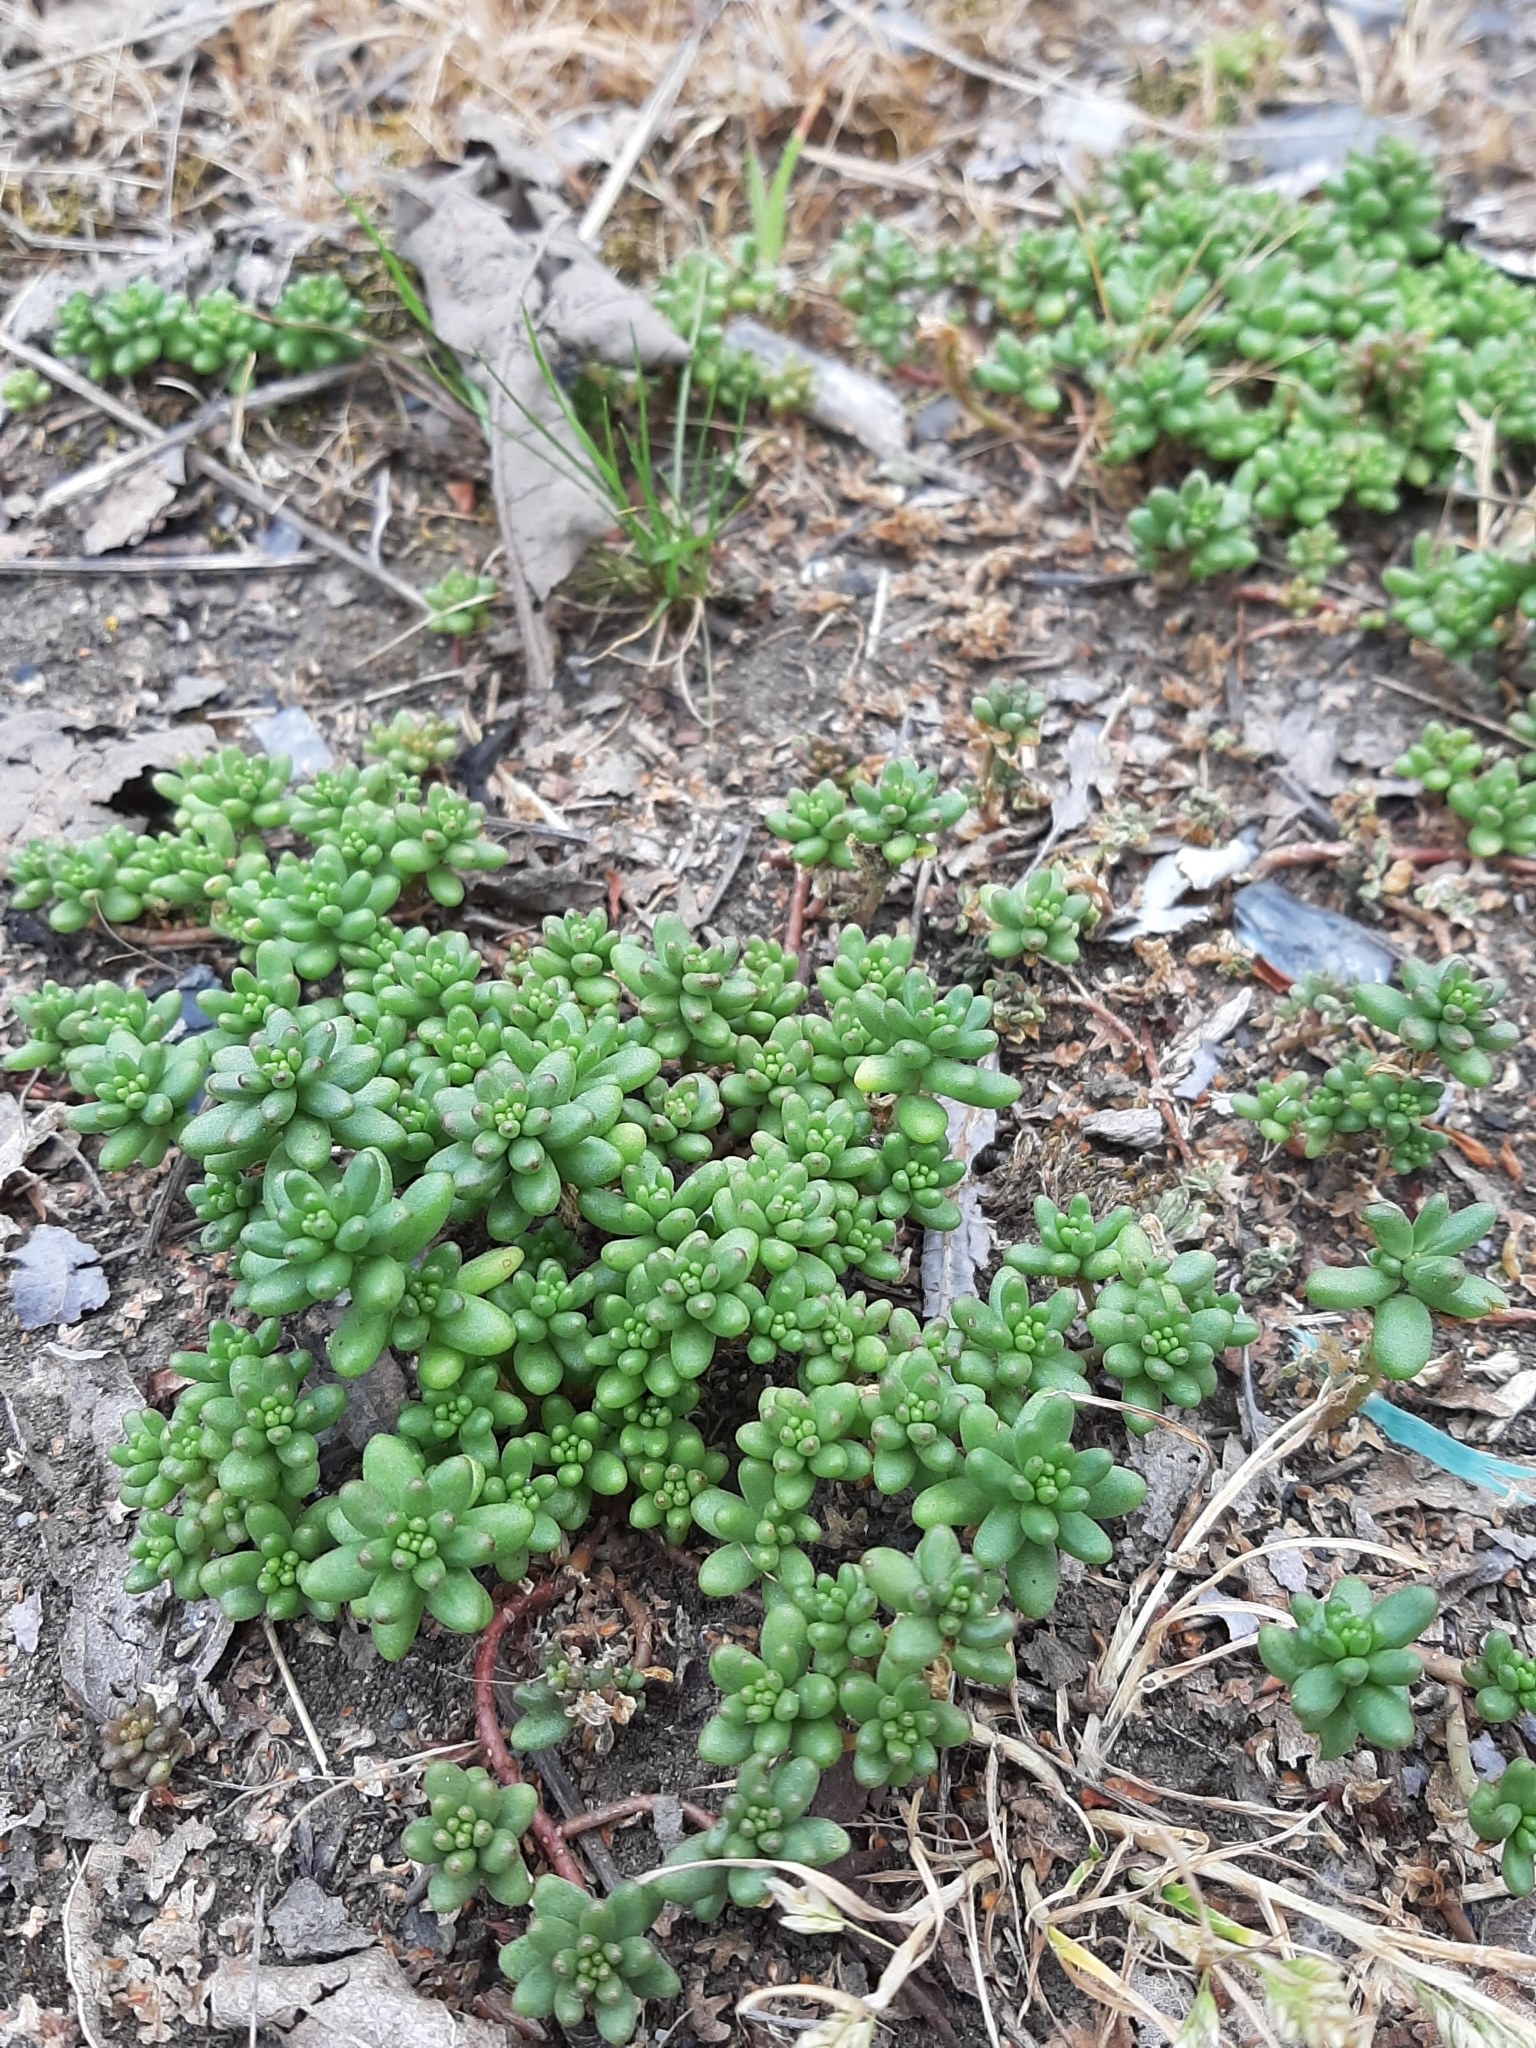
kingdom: Plantae
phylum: Tracheophyta
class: Magnoliopsida
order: Saxifragales
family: Crassulaceae
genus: Sedum
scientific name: Sedum album
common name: White stonecrop
